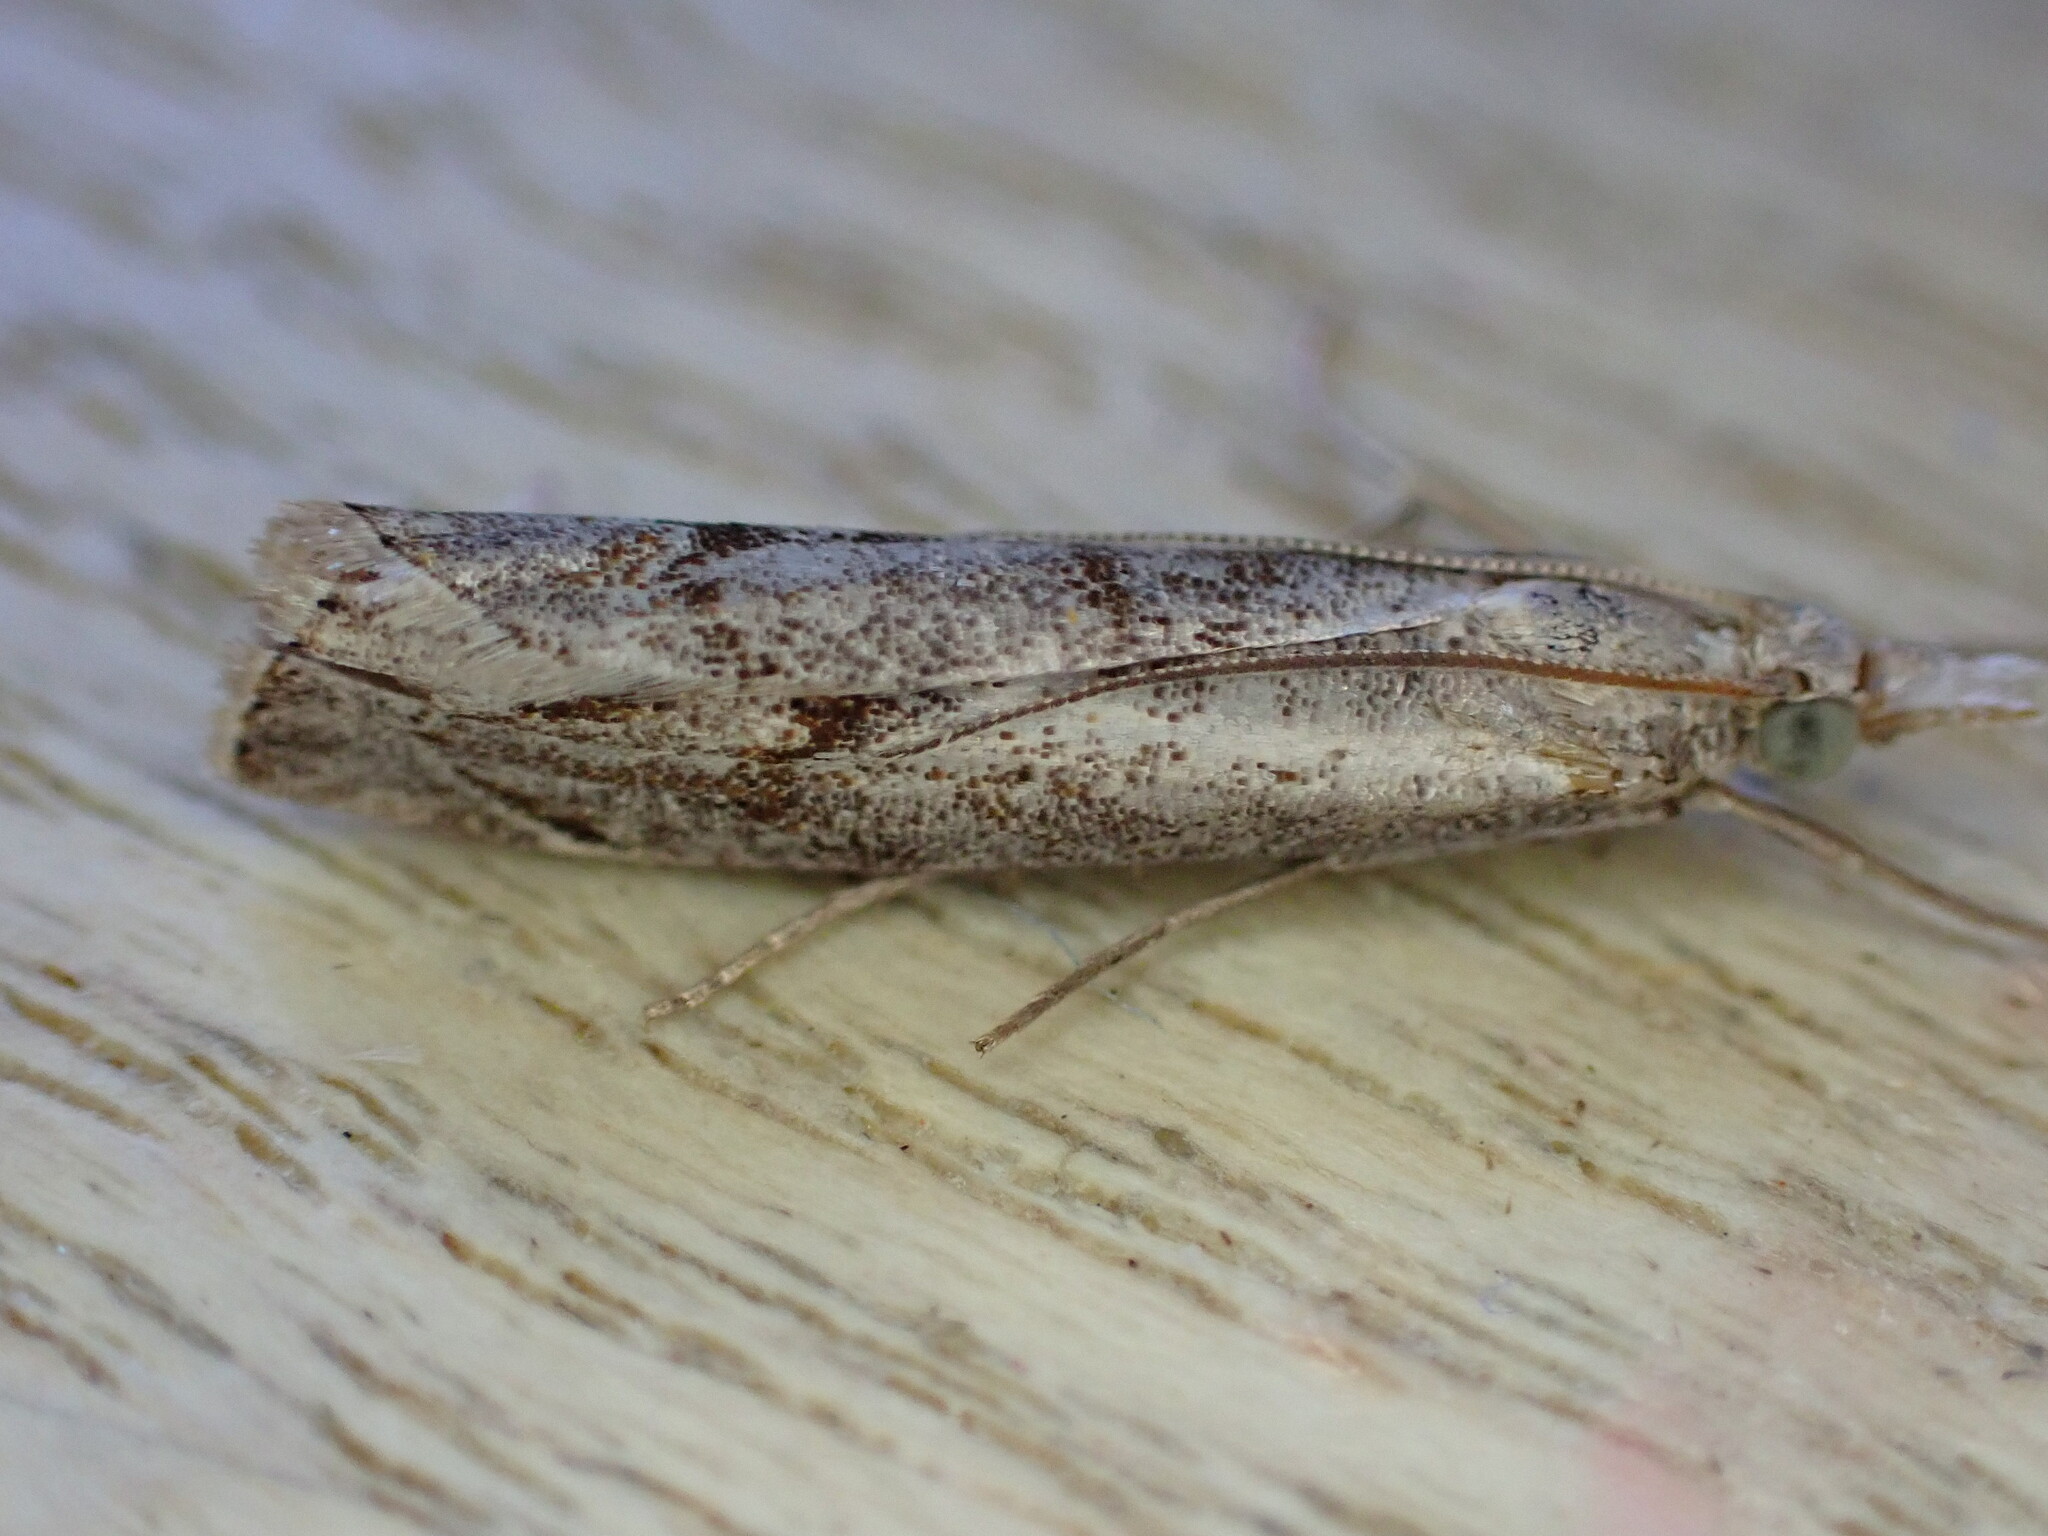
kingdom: Animalia
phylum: Arthropoda
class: Insecta
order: Lepidoptera
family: Crambidae
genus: Agriphila
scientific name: Agriphila geniculea
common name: Elbow-stripe grass-veneer
